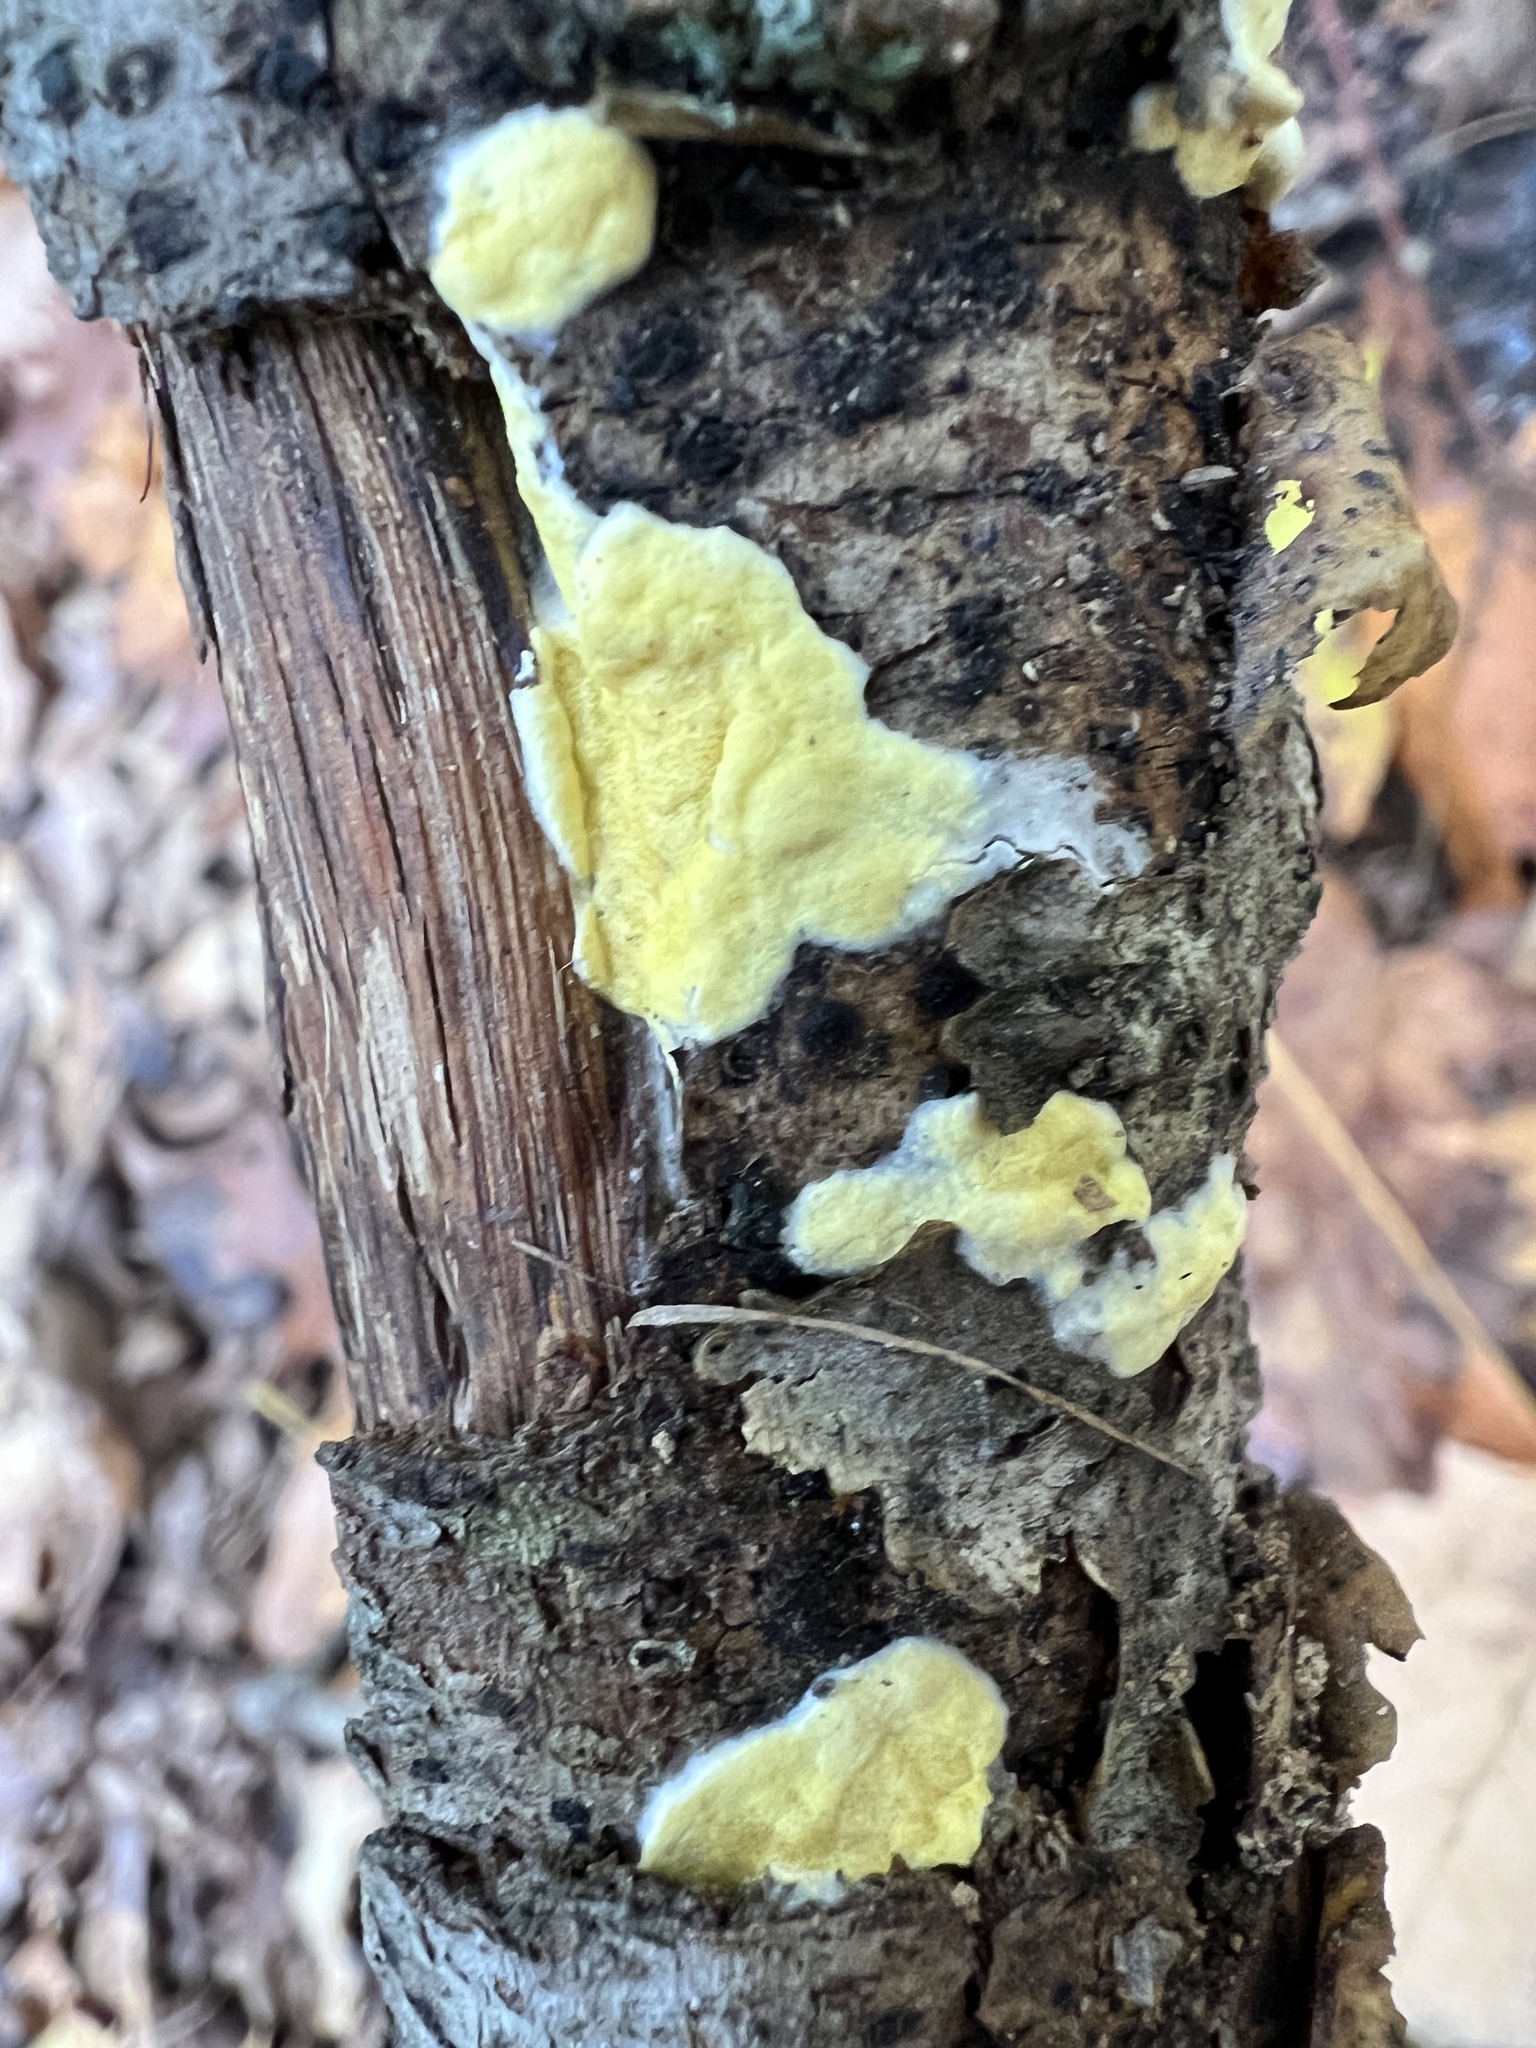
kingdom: Fungi
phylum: Ascomycota
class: Sordariomycetes
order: Hypocreales
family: Hypocreaceae
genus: Trichoderma
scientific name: Trichoderma sulphureum
